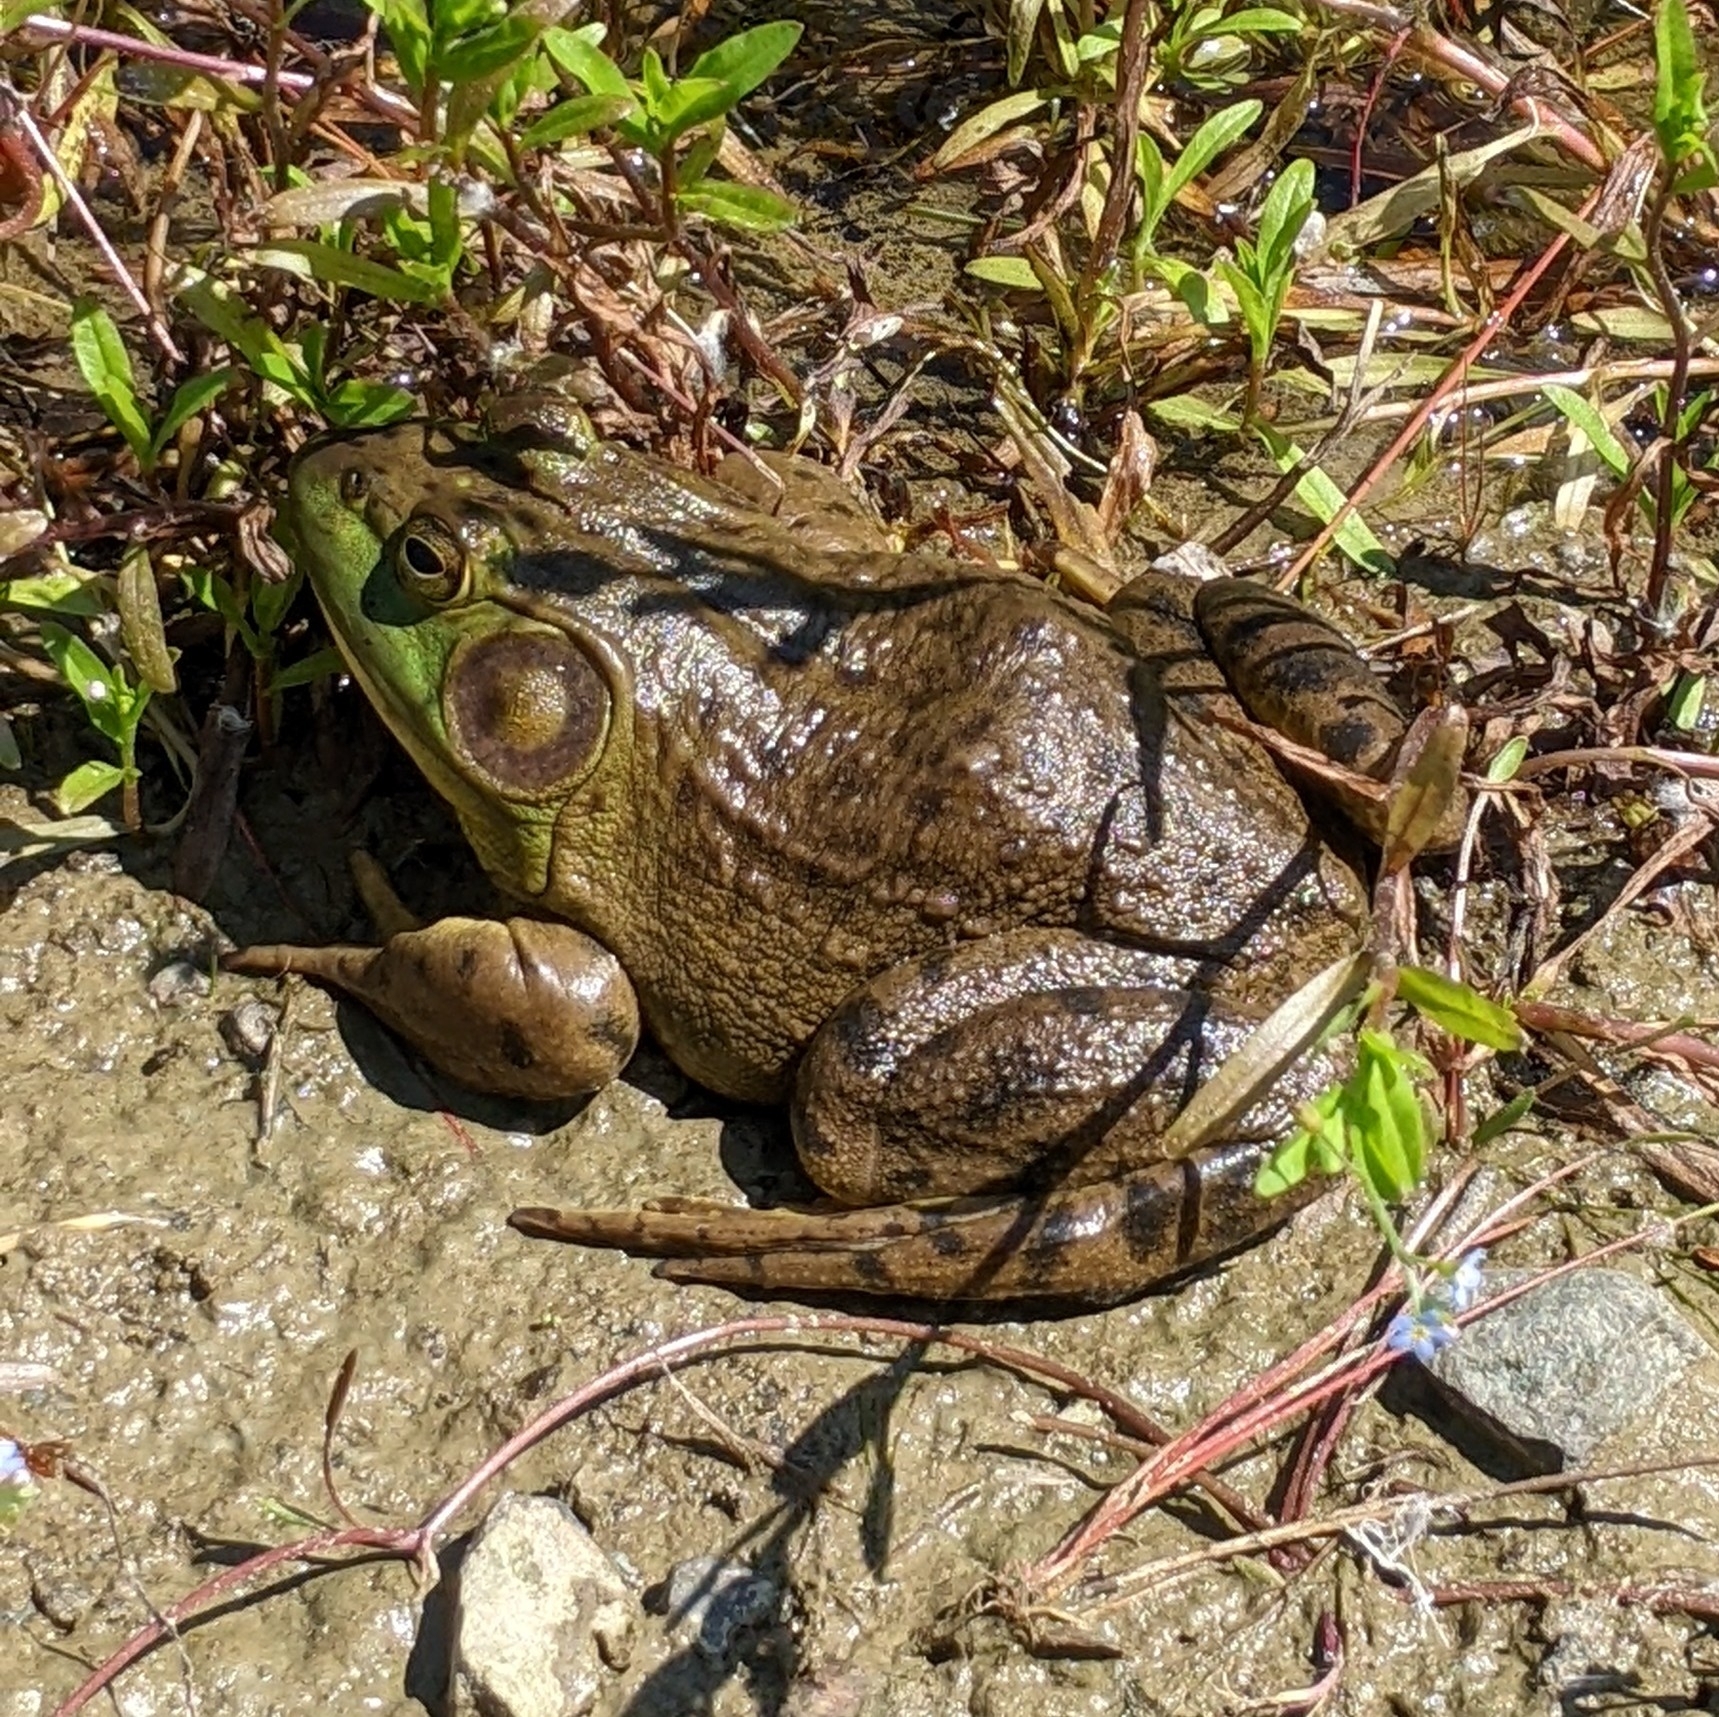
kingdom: Animalia
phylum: Chordata
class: Amphibia
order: Anura
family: Ranidae
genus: Lithobates
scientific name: Lithobates catesbeianus
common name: American bullfrog
